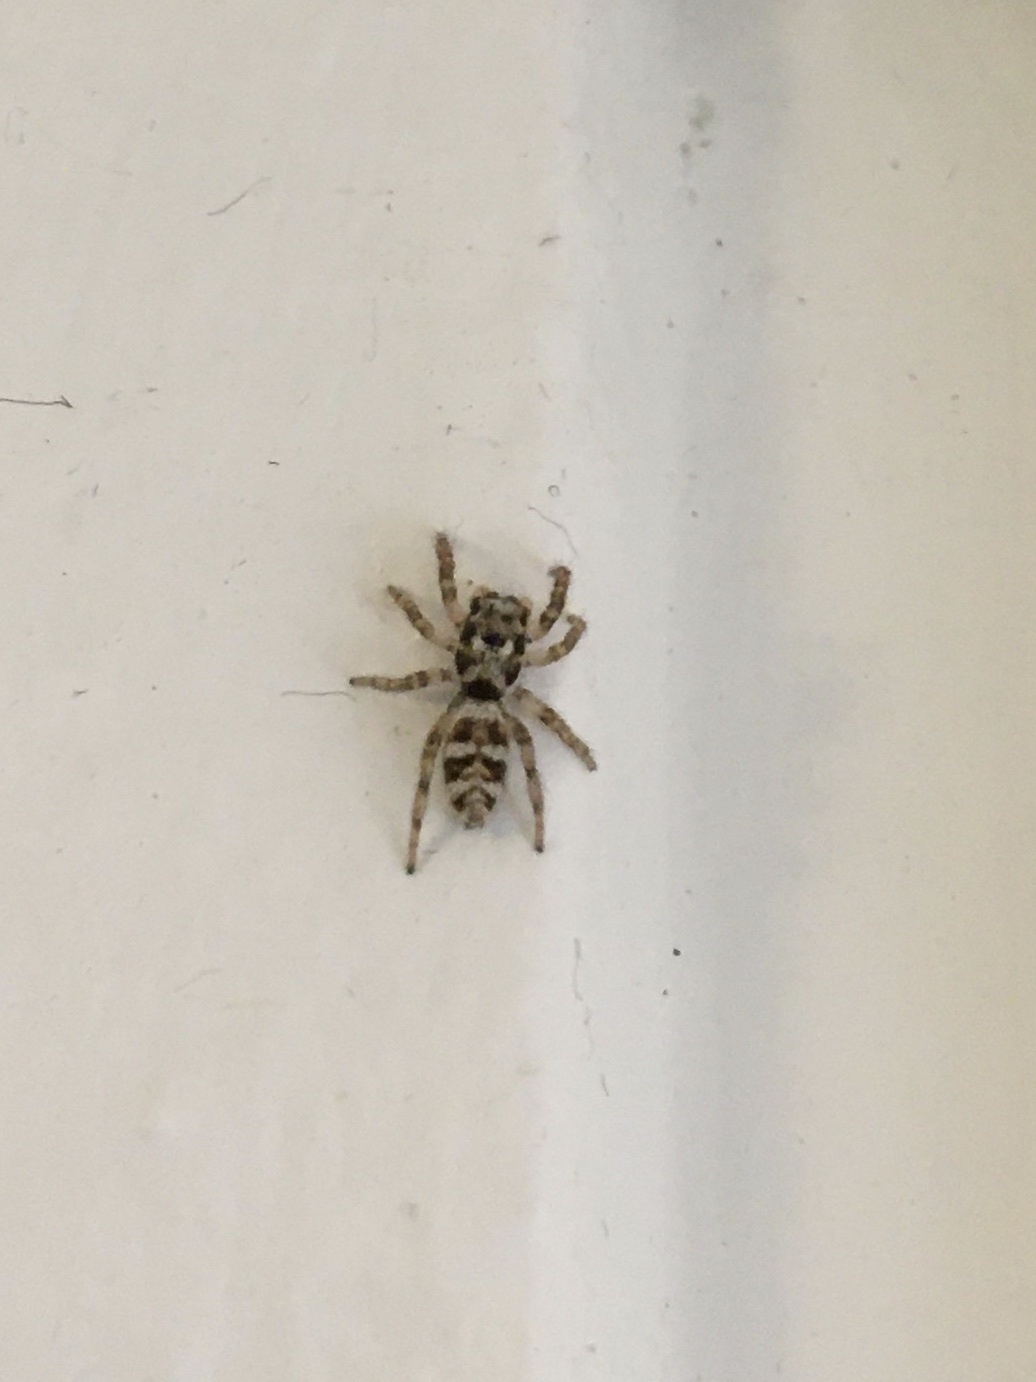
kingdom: Animalia
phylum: Arthropoda
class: Arachnida
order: Araneae
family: Salticidae
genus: Salticus
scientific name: Salticus scenicus
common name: Zebra jumper
